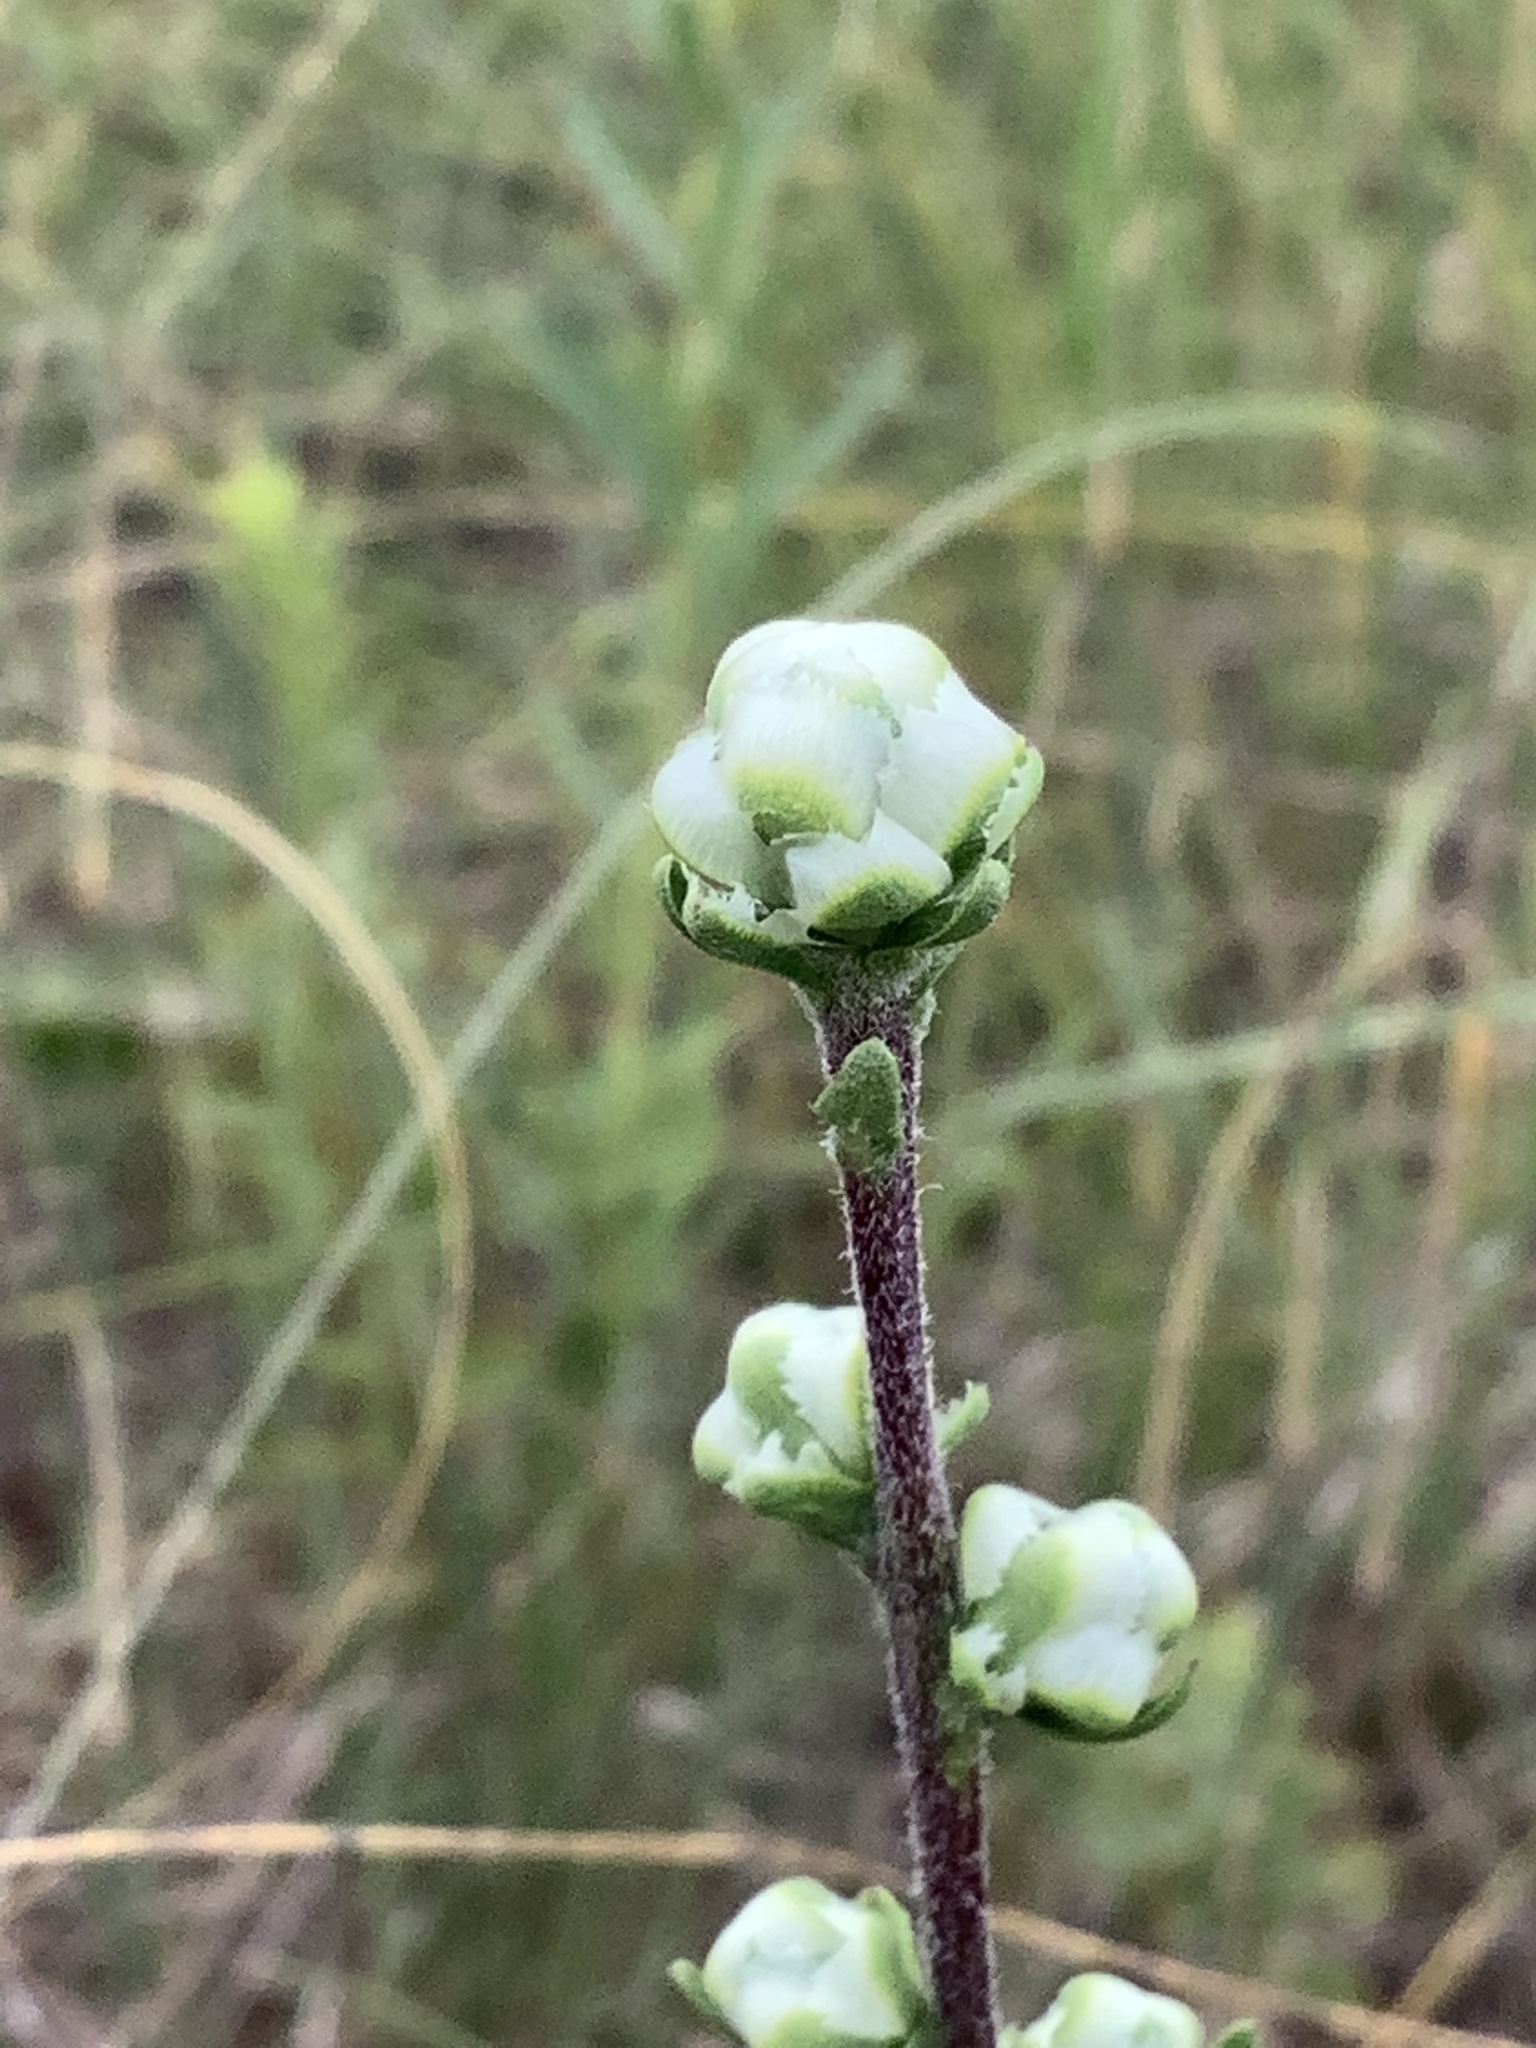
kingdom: Plantae
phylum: Tracheophyta
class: Magnoliopsida
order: Asterales
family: Asteraceae
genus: Liatris
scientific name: Liatris aspera
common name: Lacerate blazing-star
